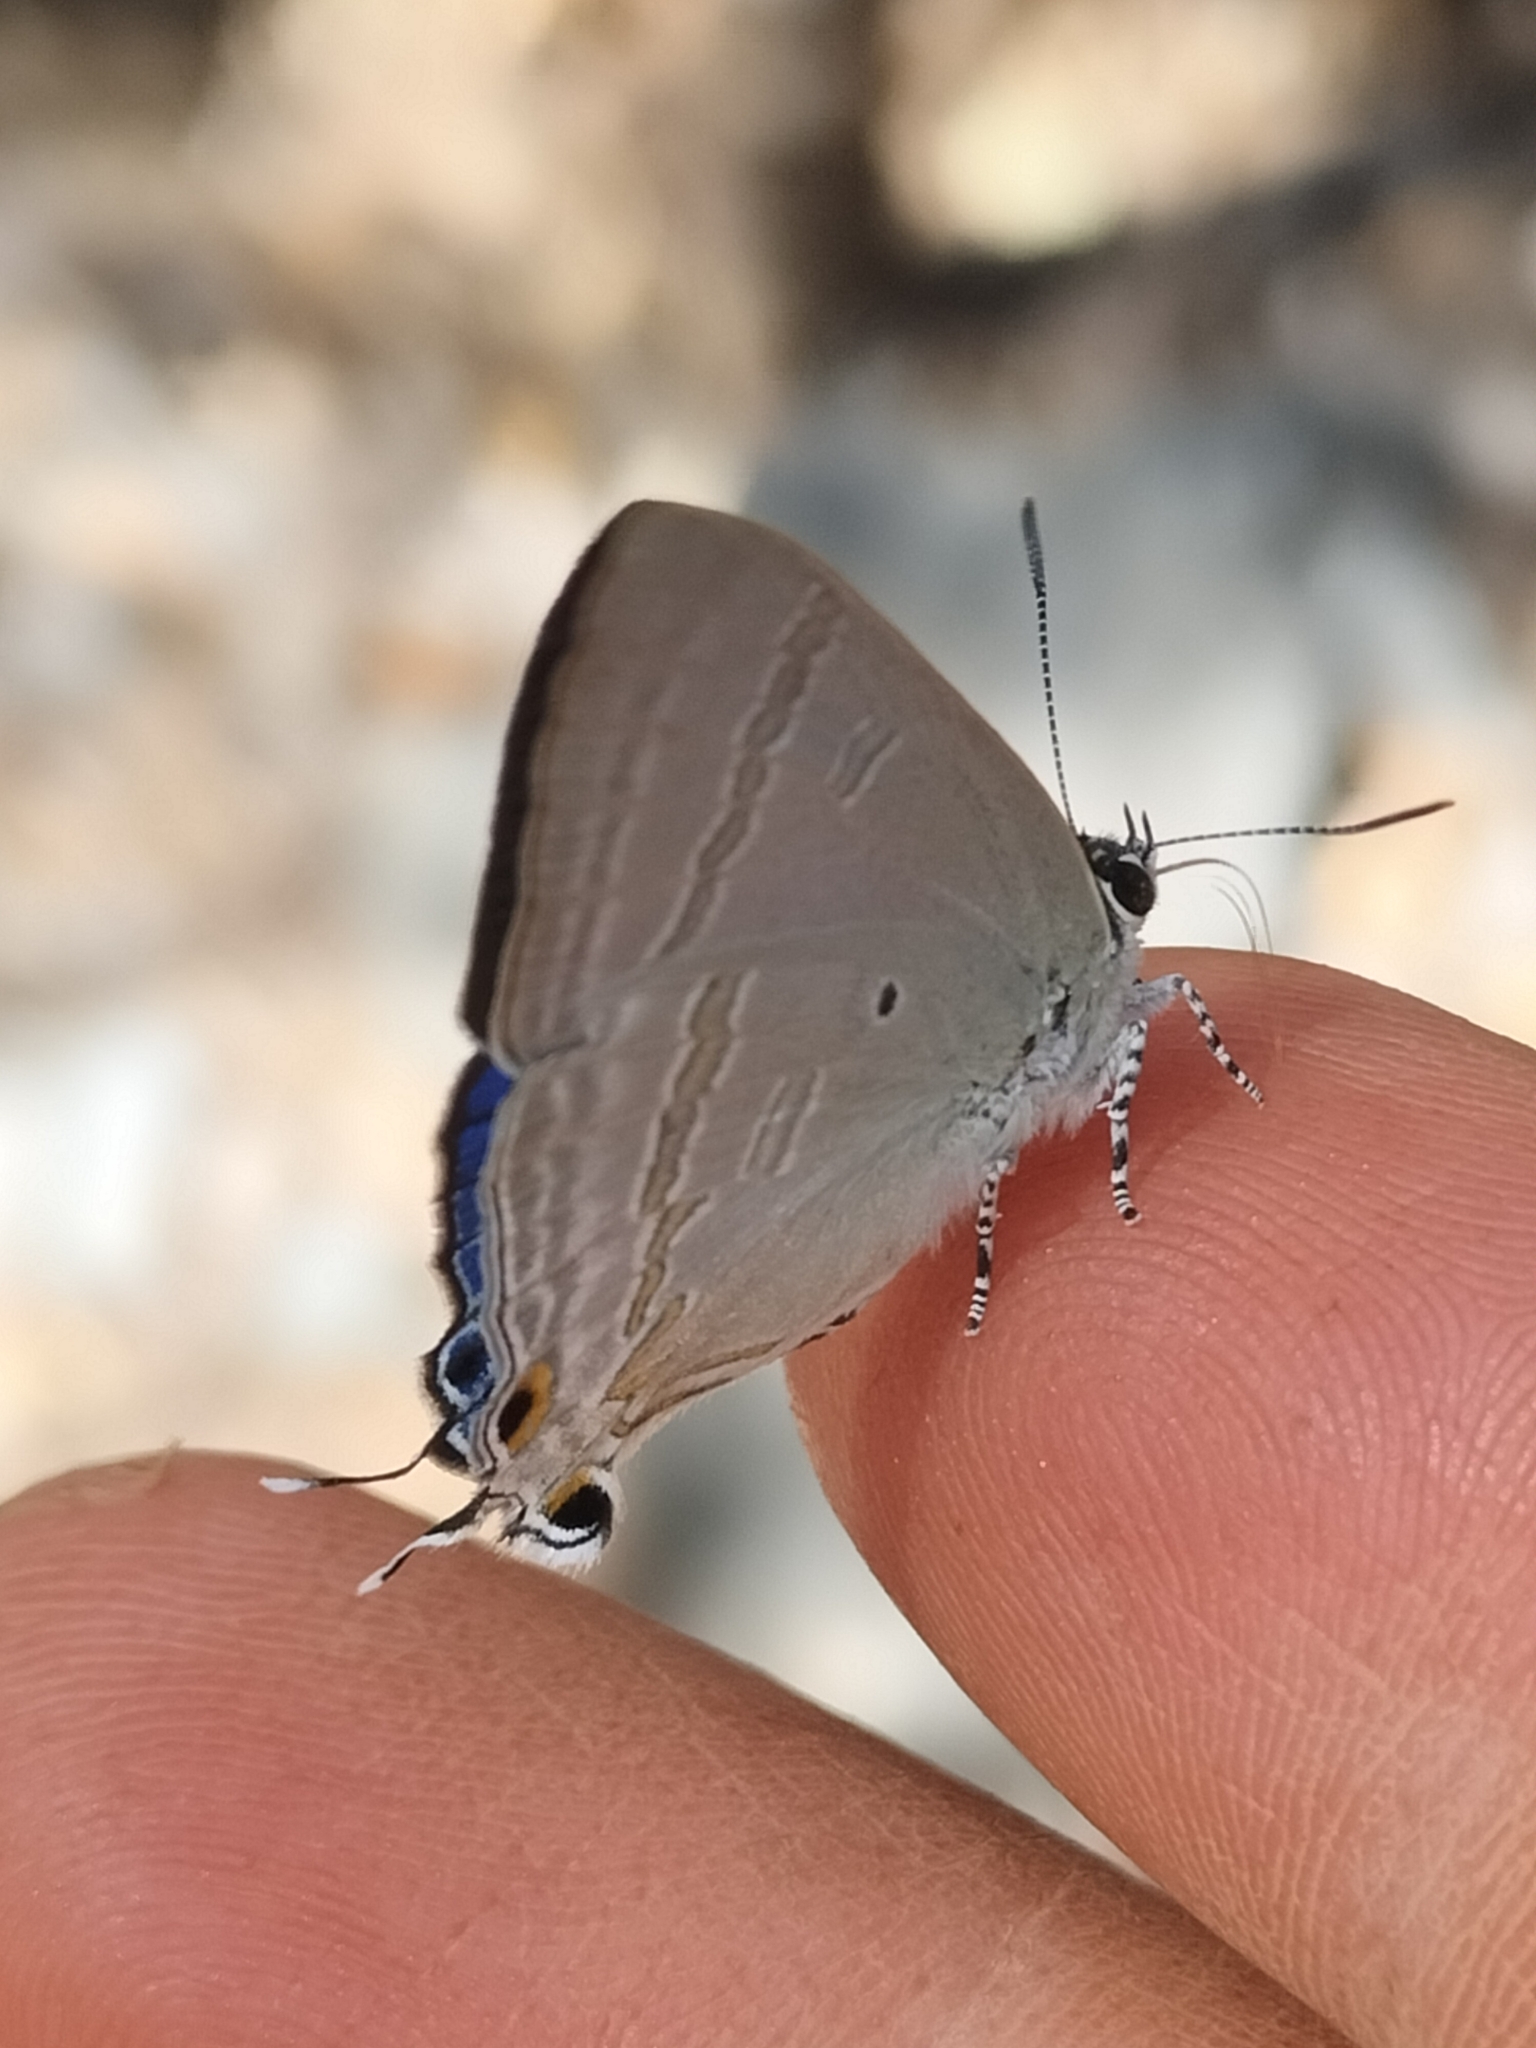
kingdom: Animalia
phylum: Arthropoda
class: Insecta
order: Lepidoptera
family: Lycaenidae
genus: Hypolycaena
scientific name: Hypolycaena phorbas
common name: Black-spotted flash
